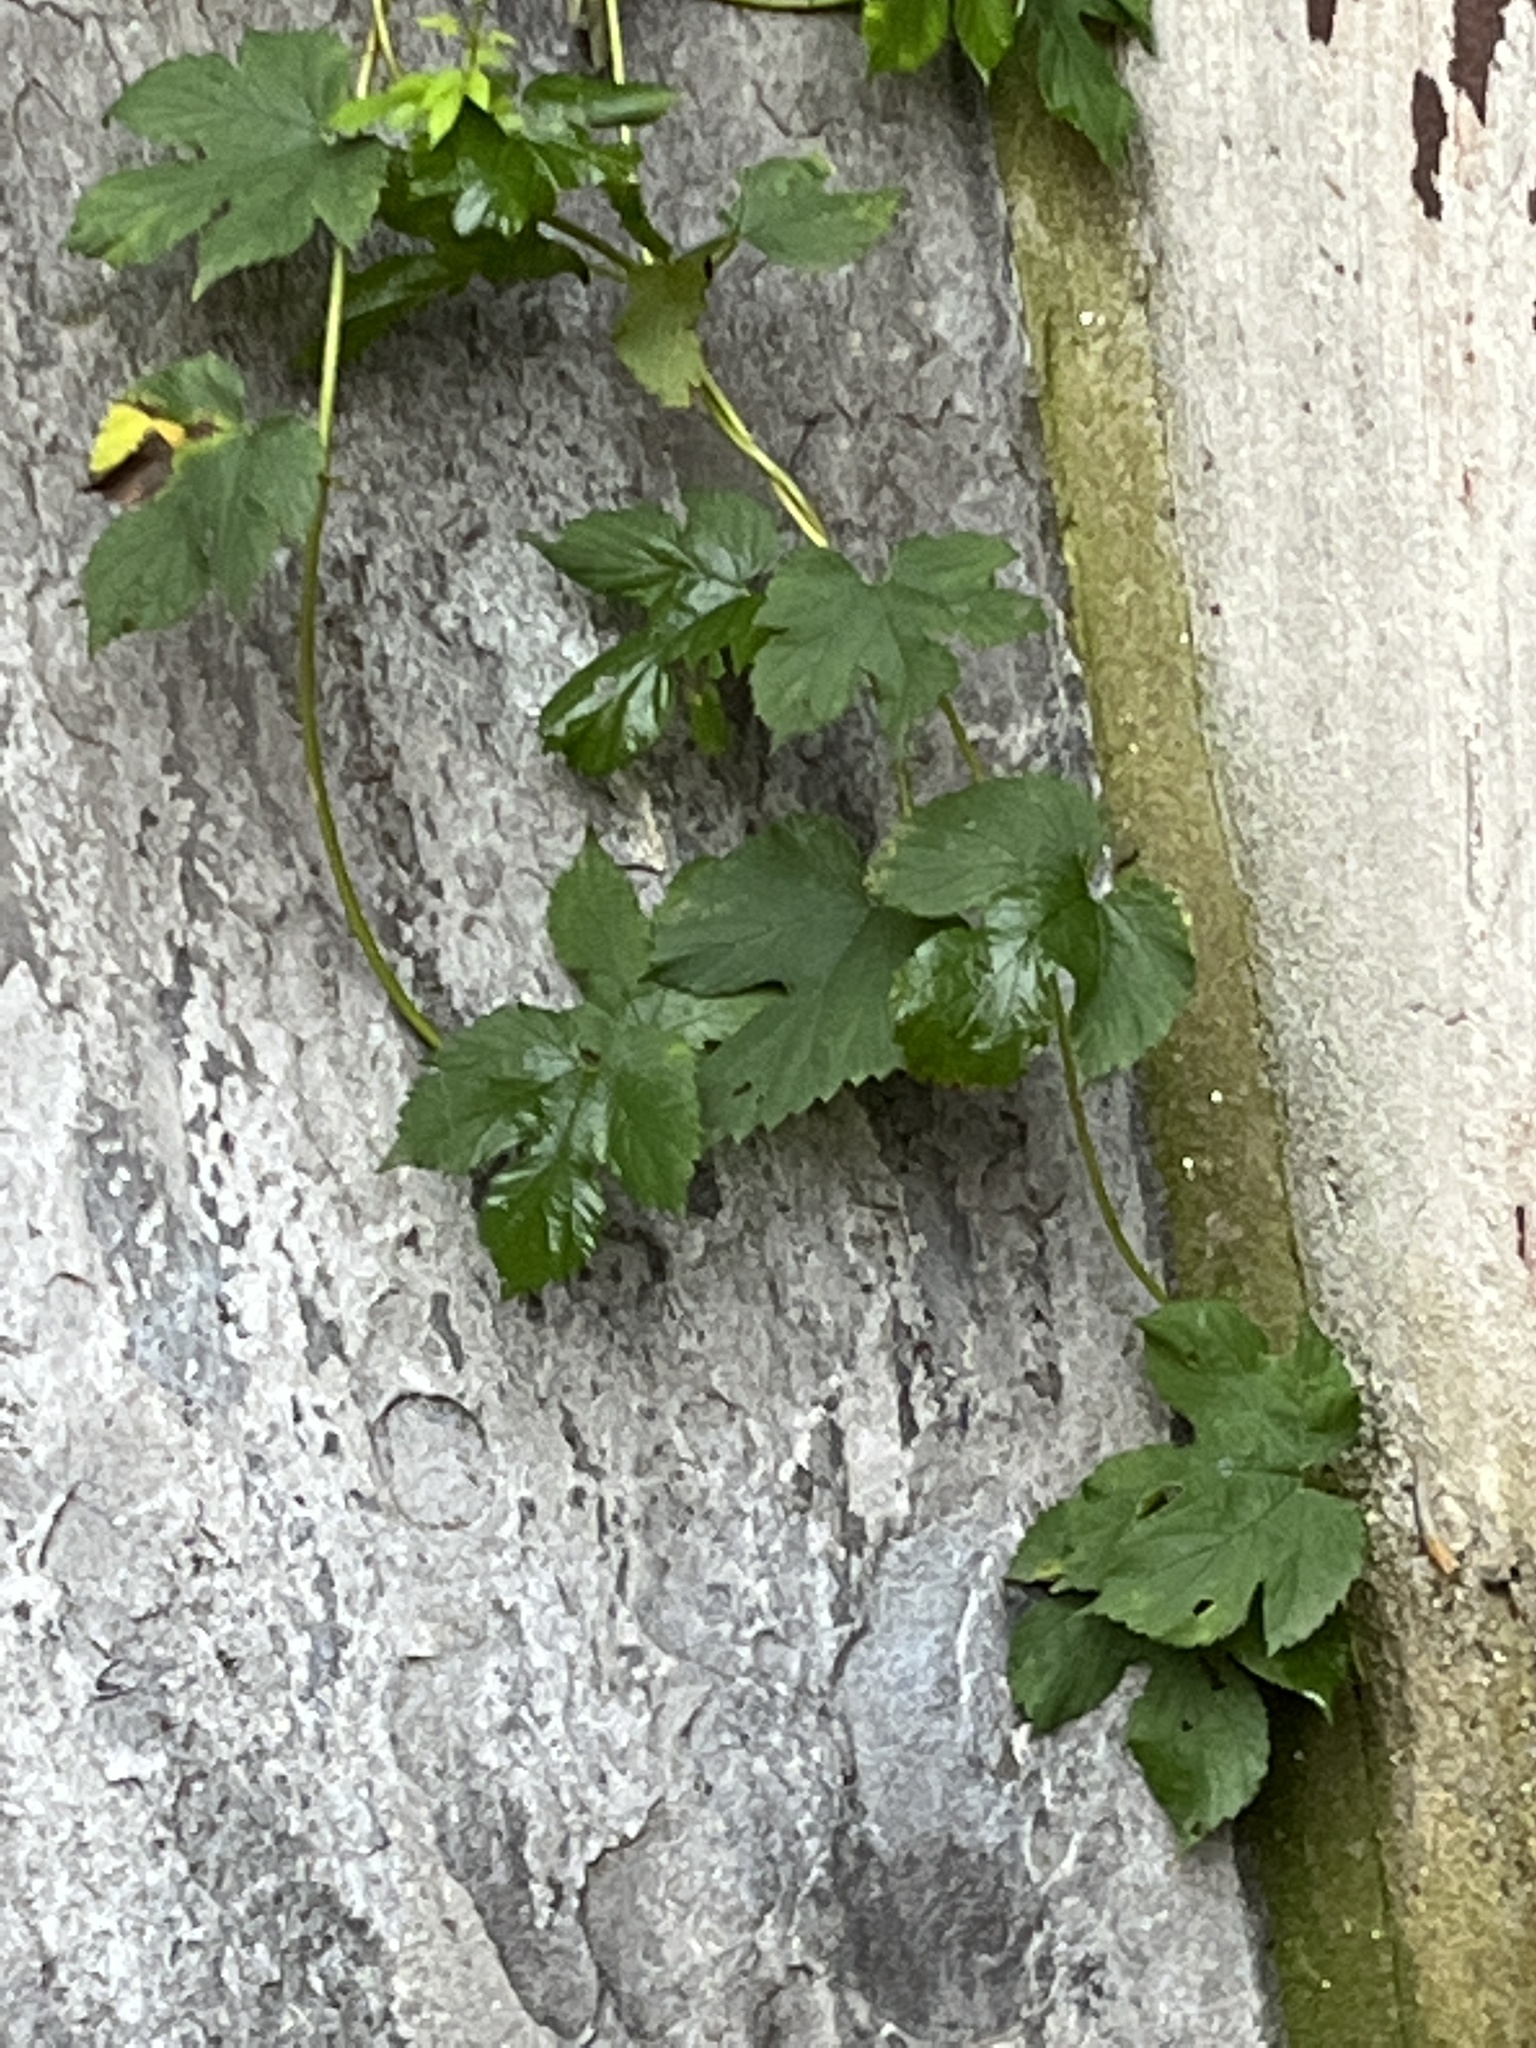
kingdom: Plantae
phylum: Tracheophyta
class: Magnoliopsida
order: Rosales
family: Cannabaceae
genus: Humulus
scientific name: Humulus lupulus
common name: Hop
